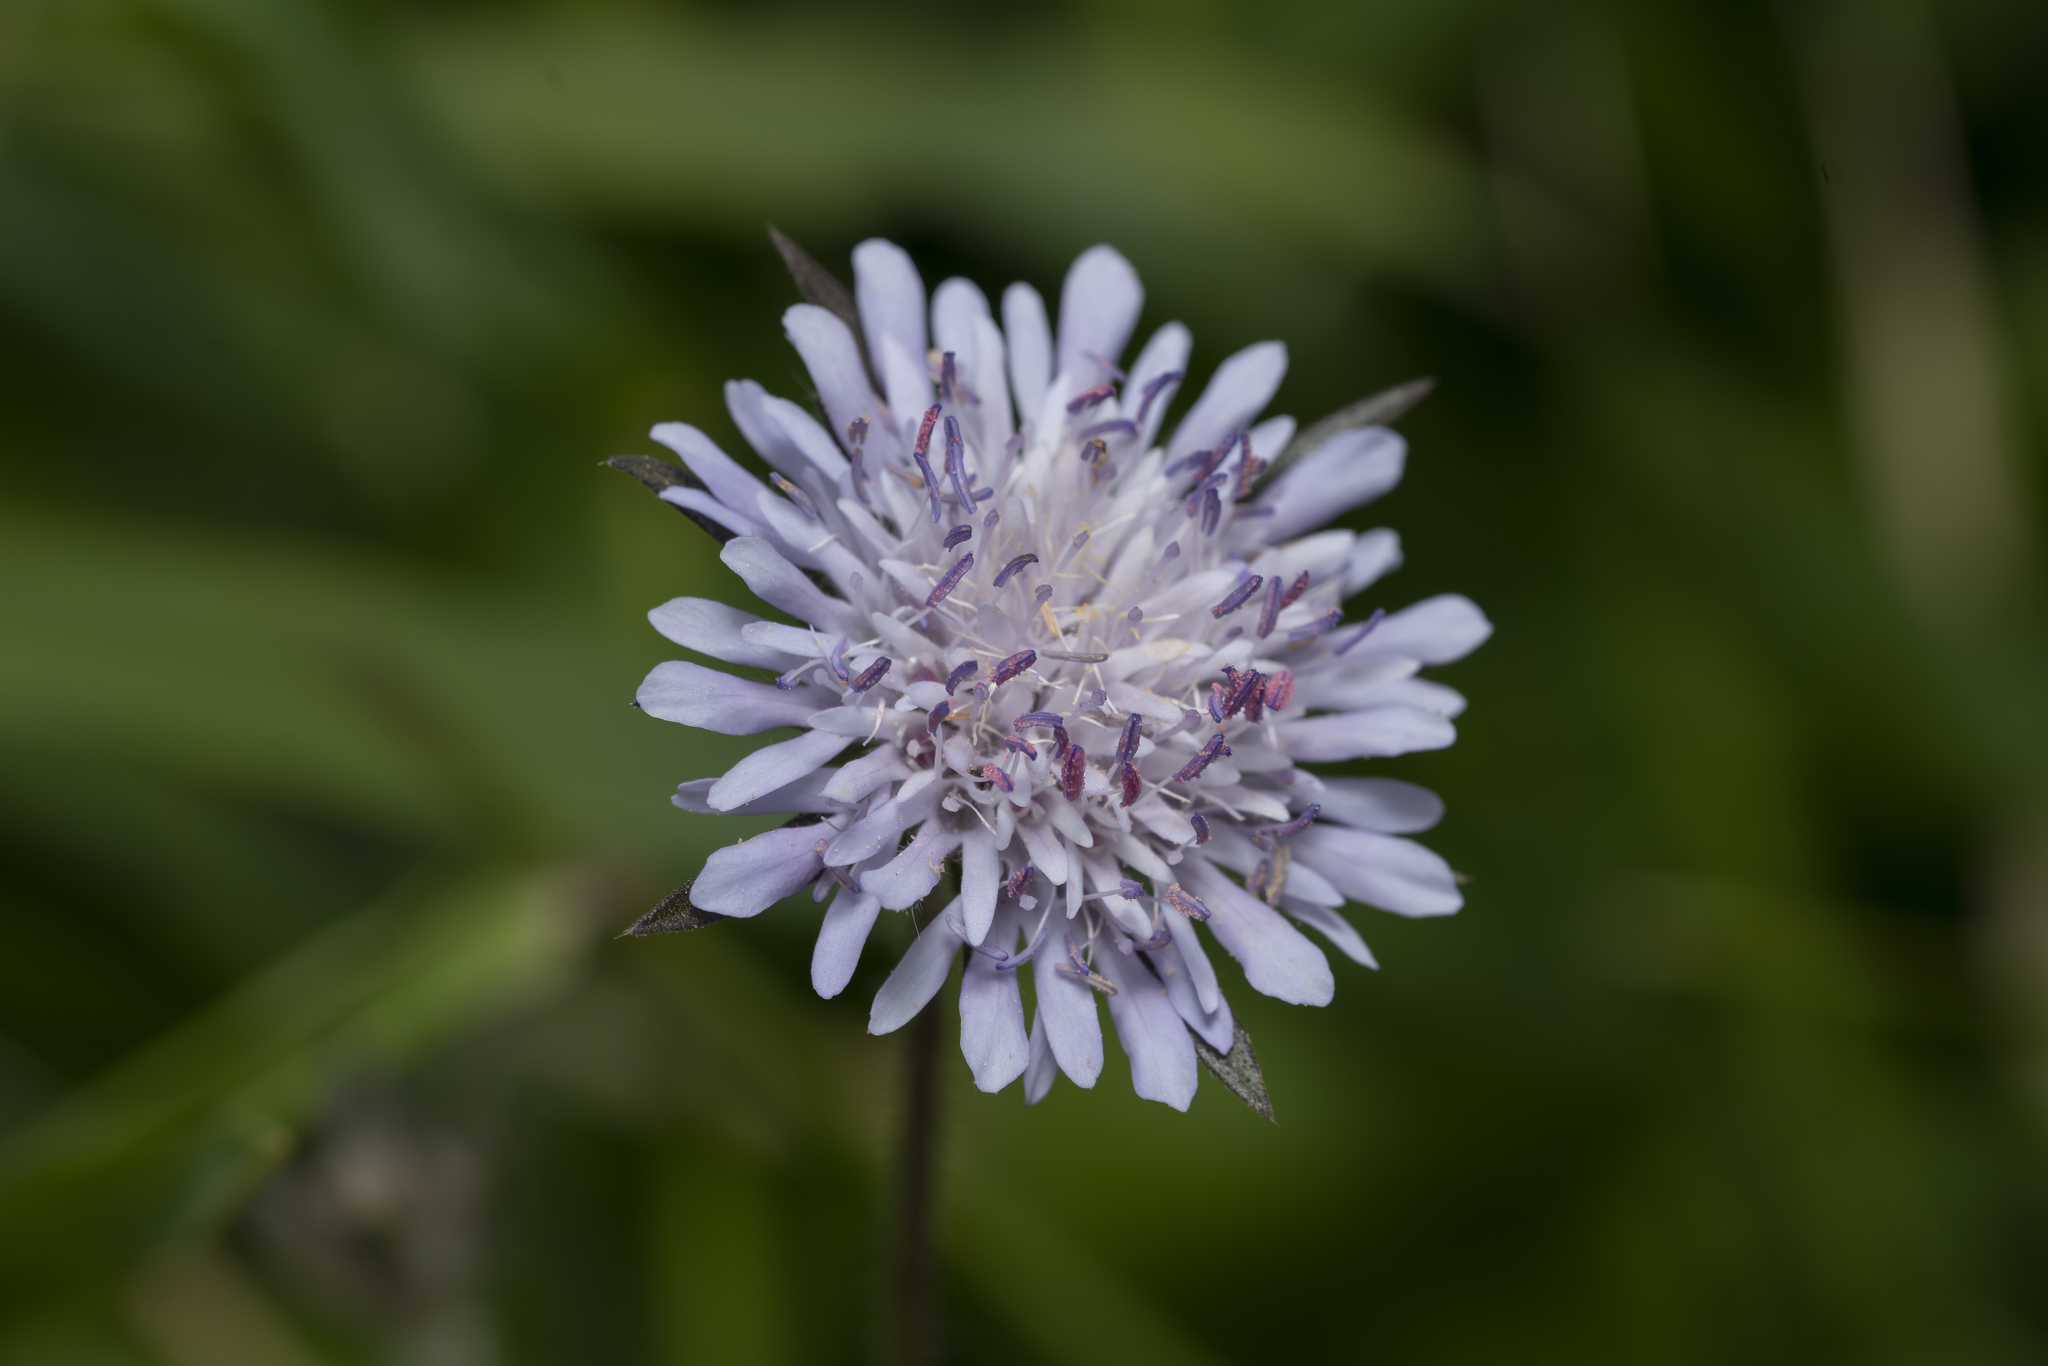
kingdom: Plantae
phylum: Tracheophyta
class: Magnoliopsida
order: Dipsacales
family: Caprifoliaceae
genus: Knautia
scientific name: Knautia integrifolia
